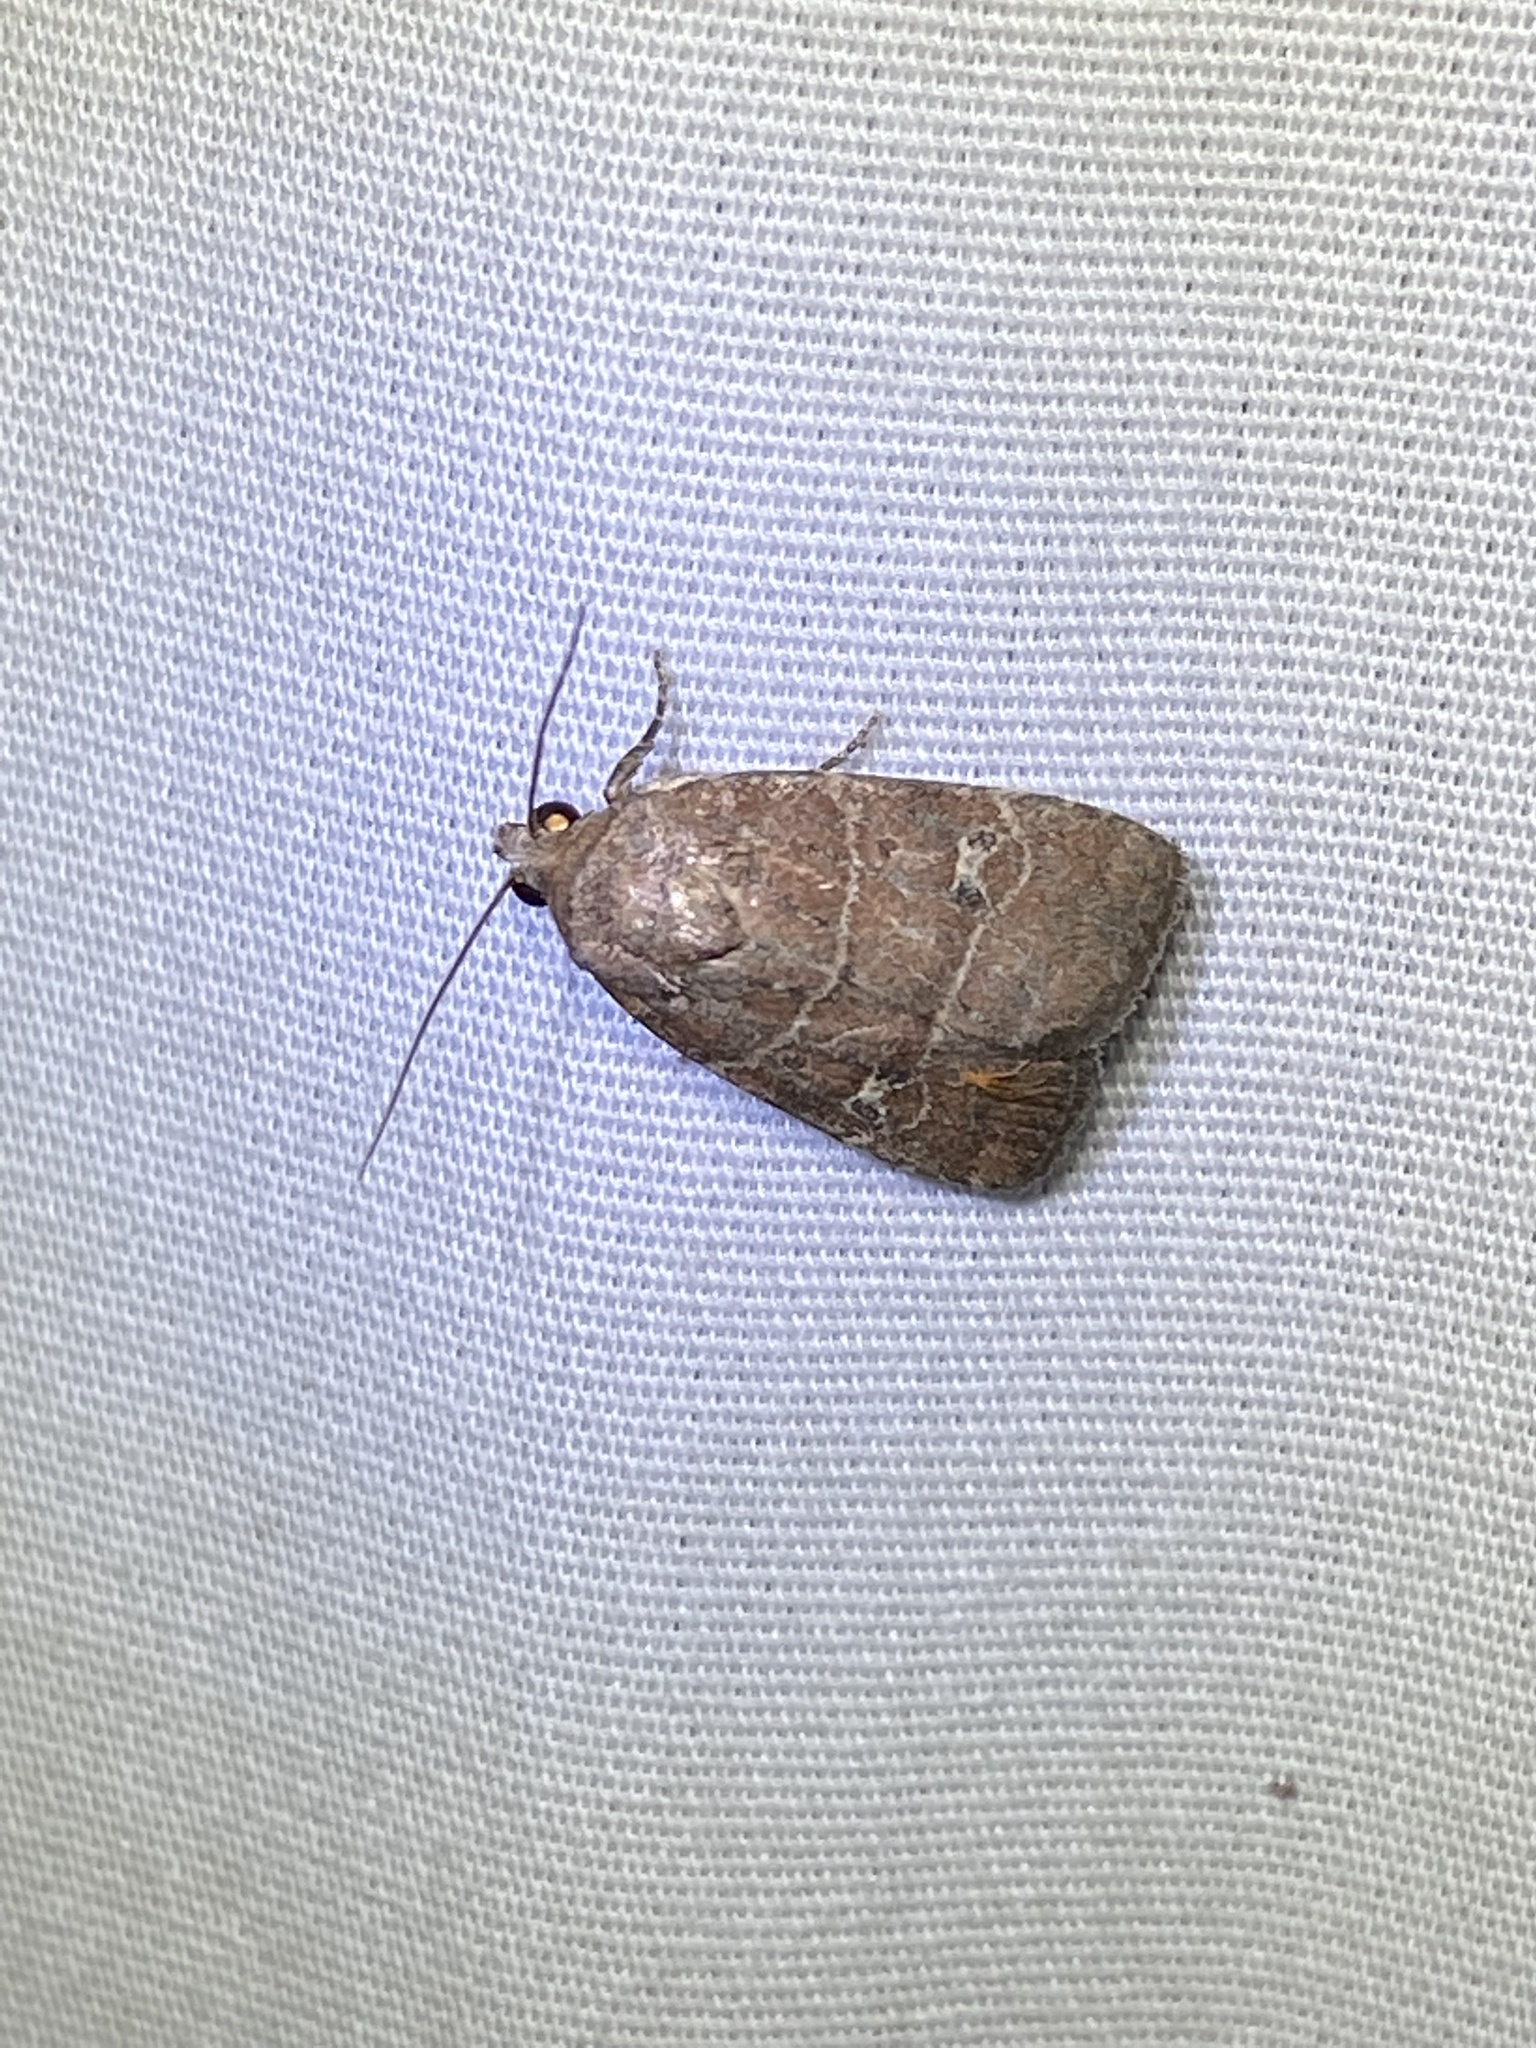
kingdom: Animalia
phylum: Arthropoda
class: Insecta
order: Lepidoptera
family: Noctuidae
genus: Elaphria
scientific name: Elaphria grata
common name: Grateful midget moth
